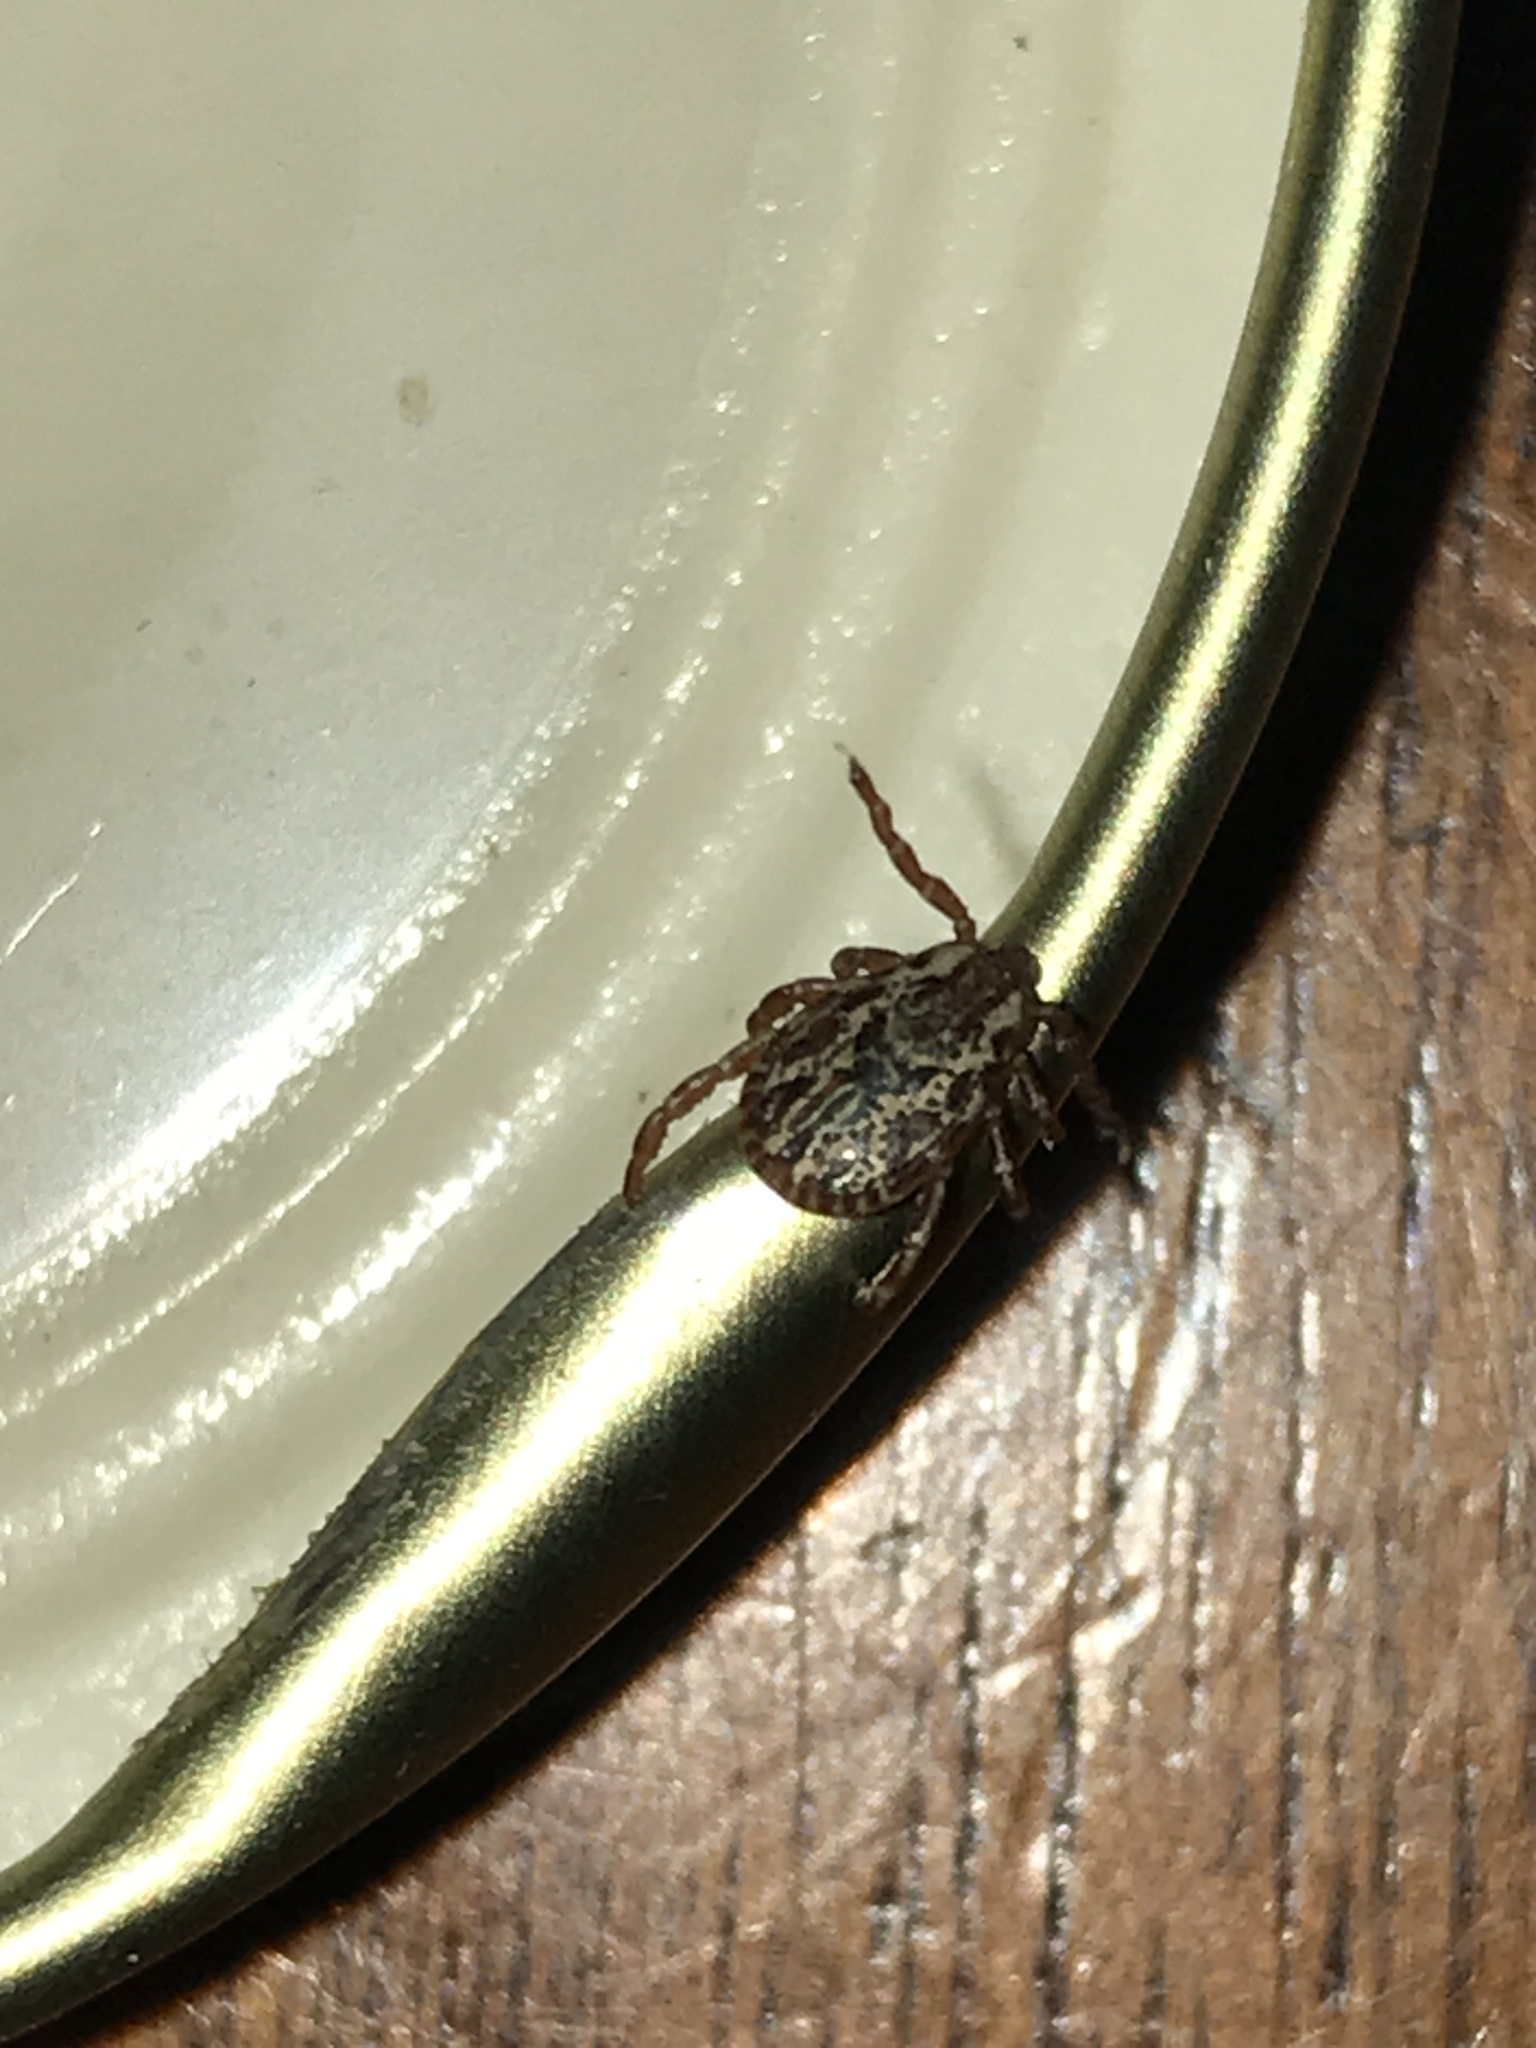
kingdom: Animalia
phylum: Arthropoda
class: Arachnida
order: Ixodida
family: Ixodidae
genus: Dermacentor
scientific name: Dermacentor variabilis
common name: American dog tick
